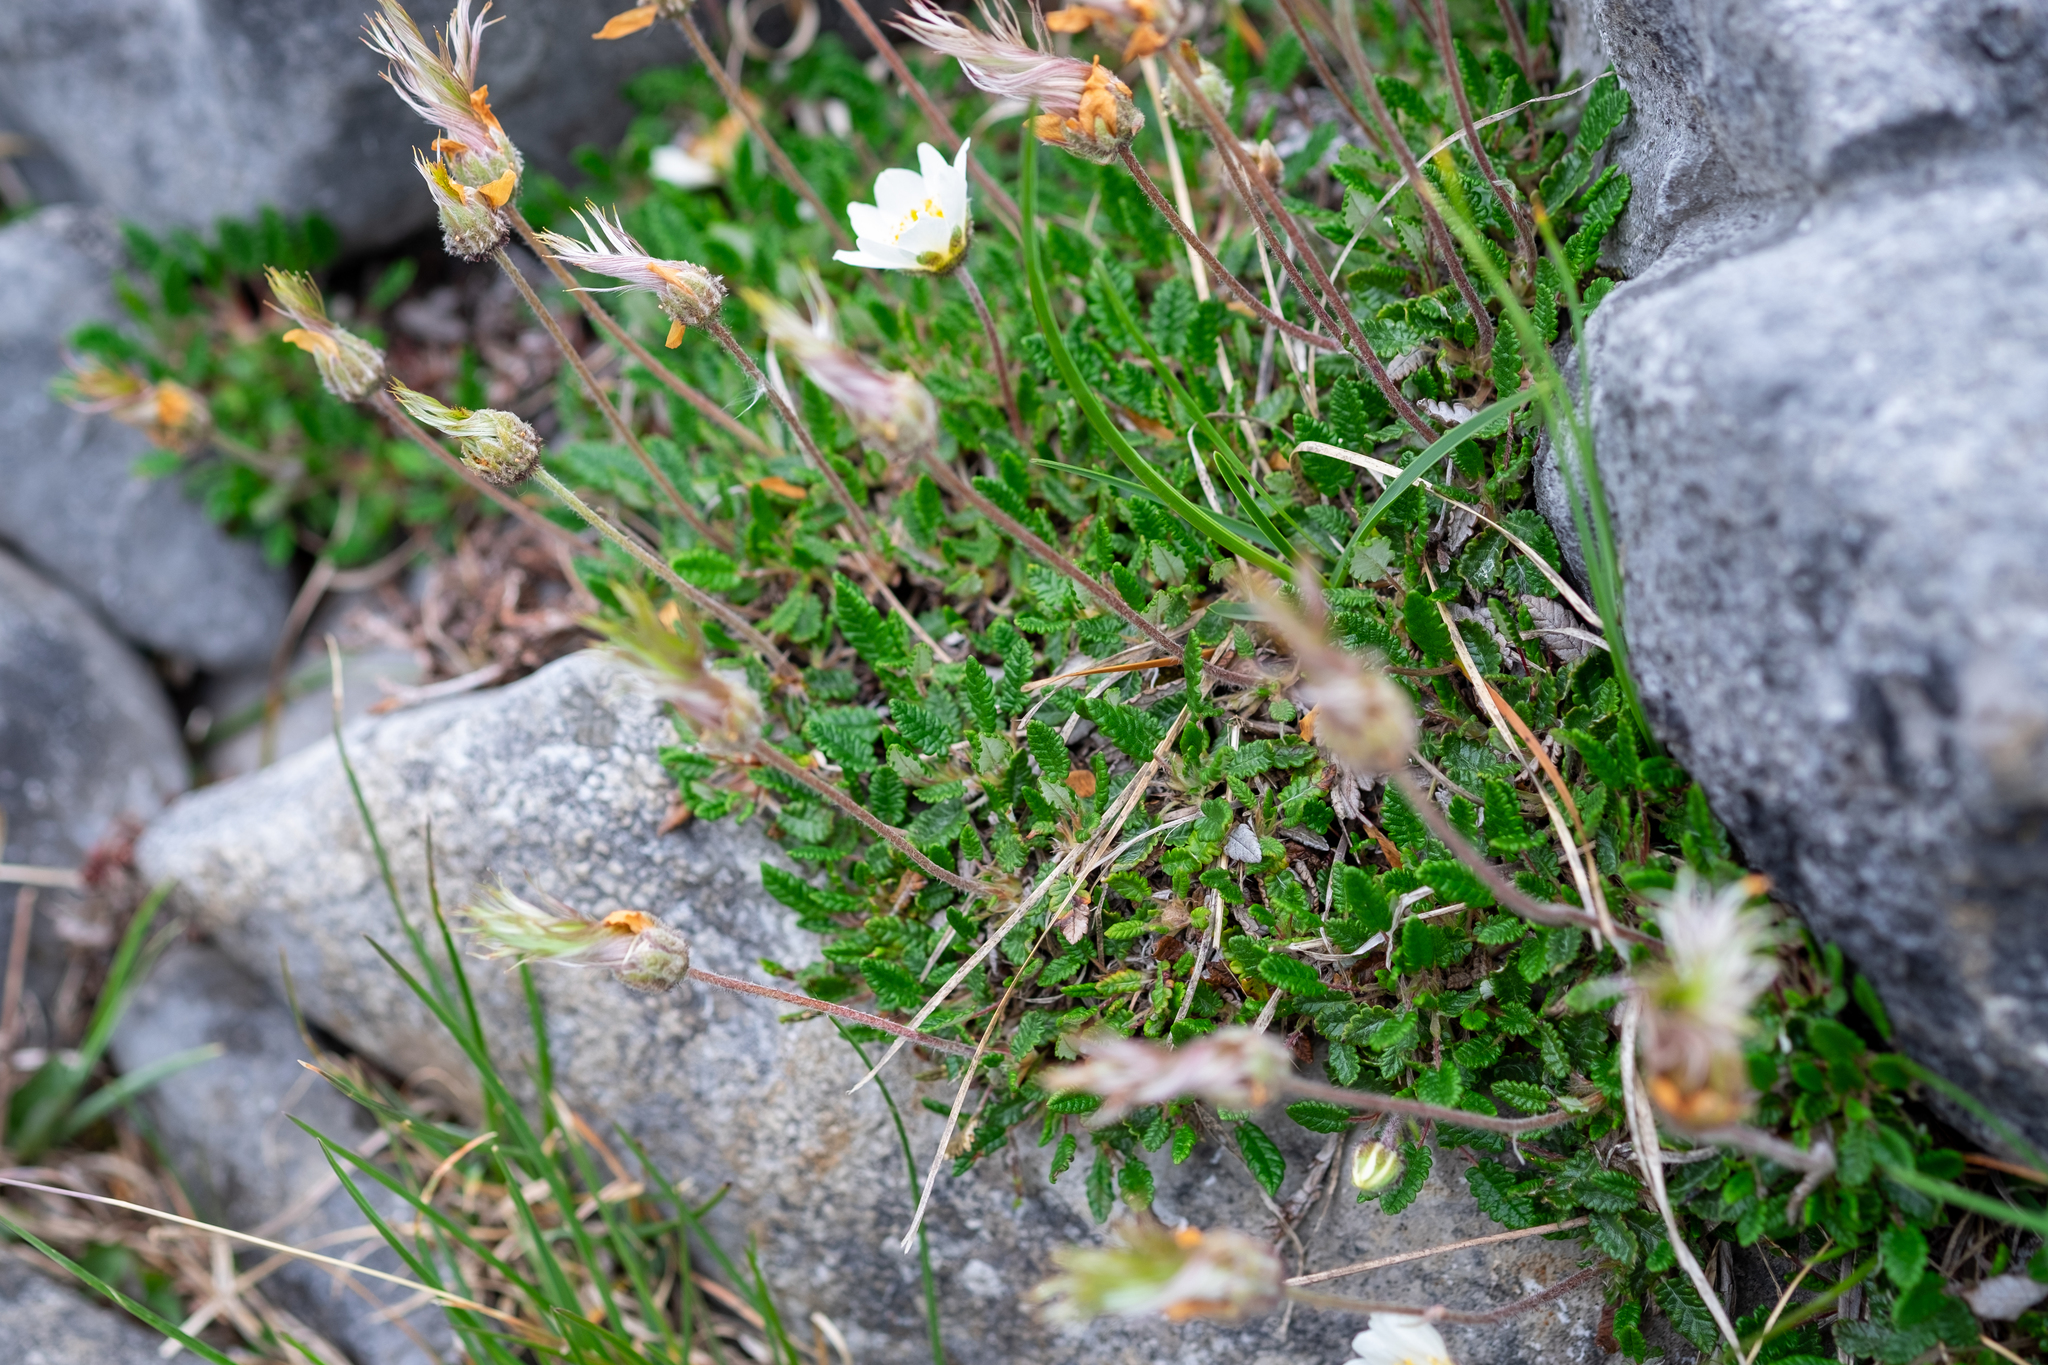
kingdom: Plantae
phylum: Tracheophyta
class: Magnoliopsida
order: Rosales
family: Rosaceae
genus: Dryas
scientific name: Dryas octopetala
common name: Eight-petal mountain-avens
